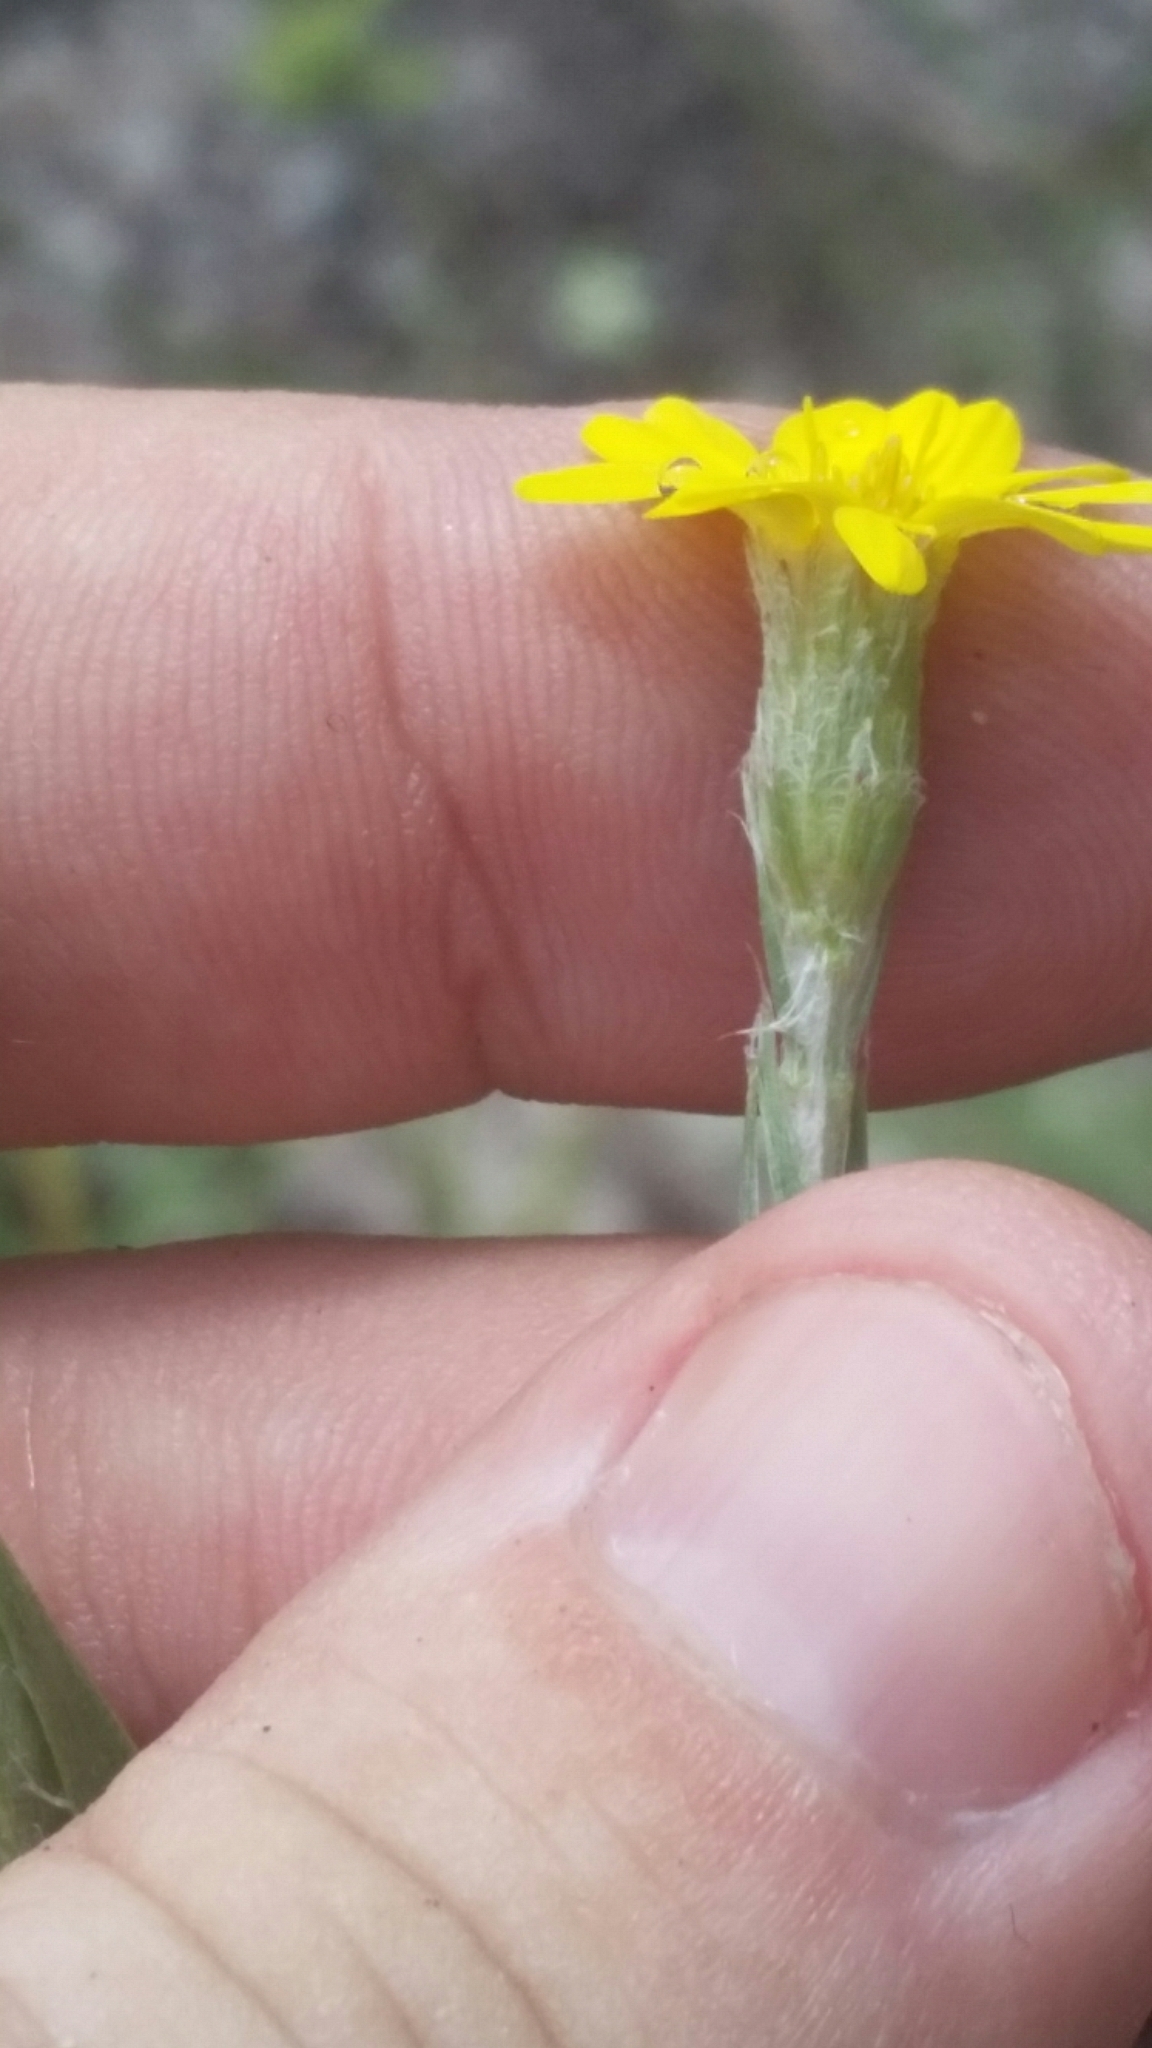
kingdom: Plantae
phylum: Tracheophyta
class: Magnoliopsida
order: Asterales
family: Asteraceae
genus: Pityopsis
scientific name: Pityopsis latifolia
